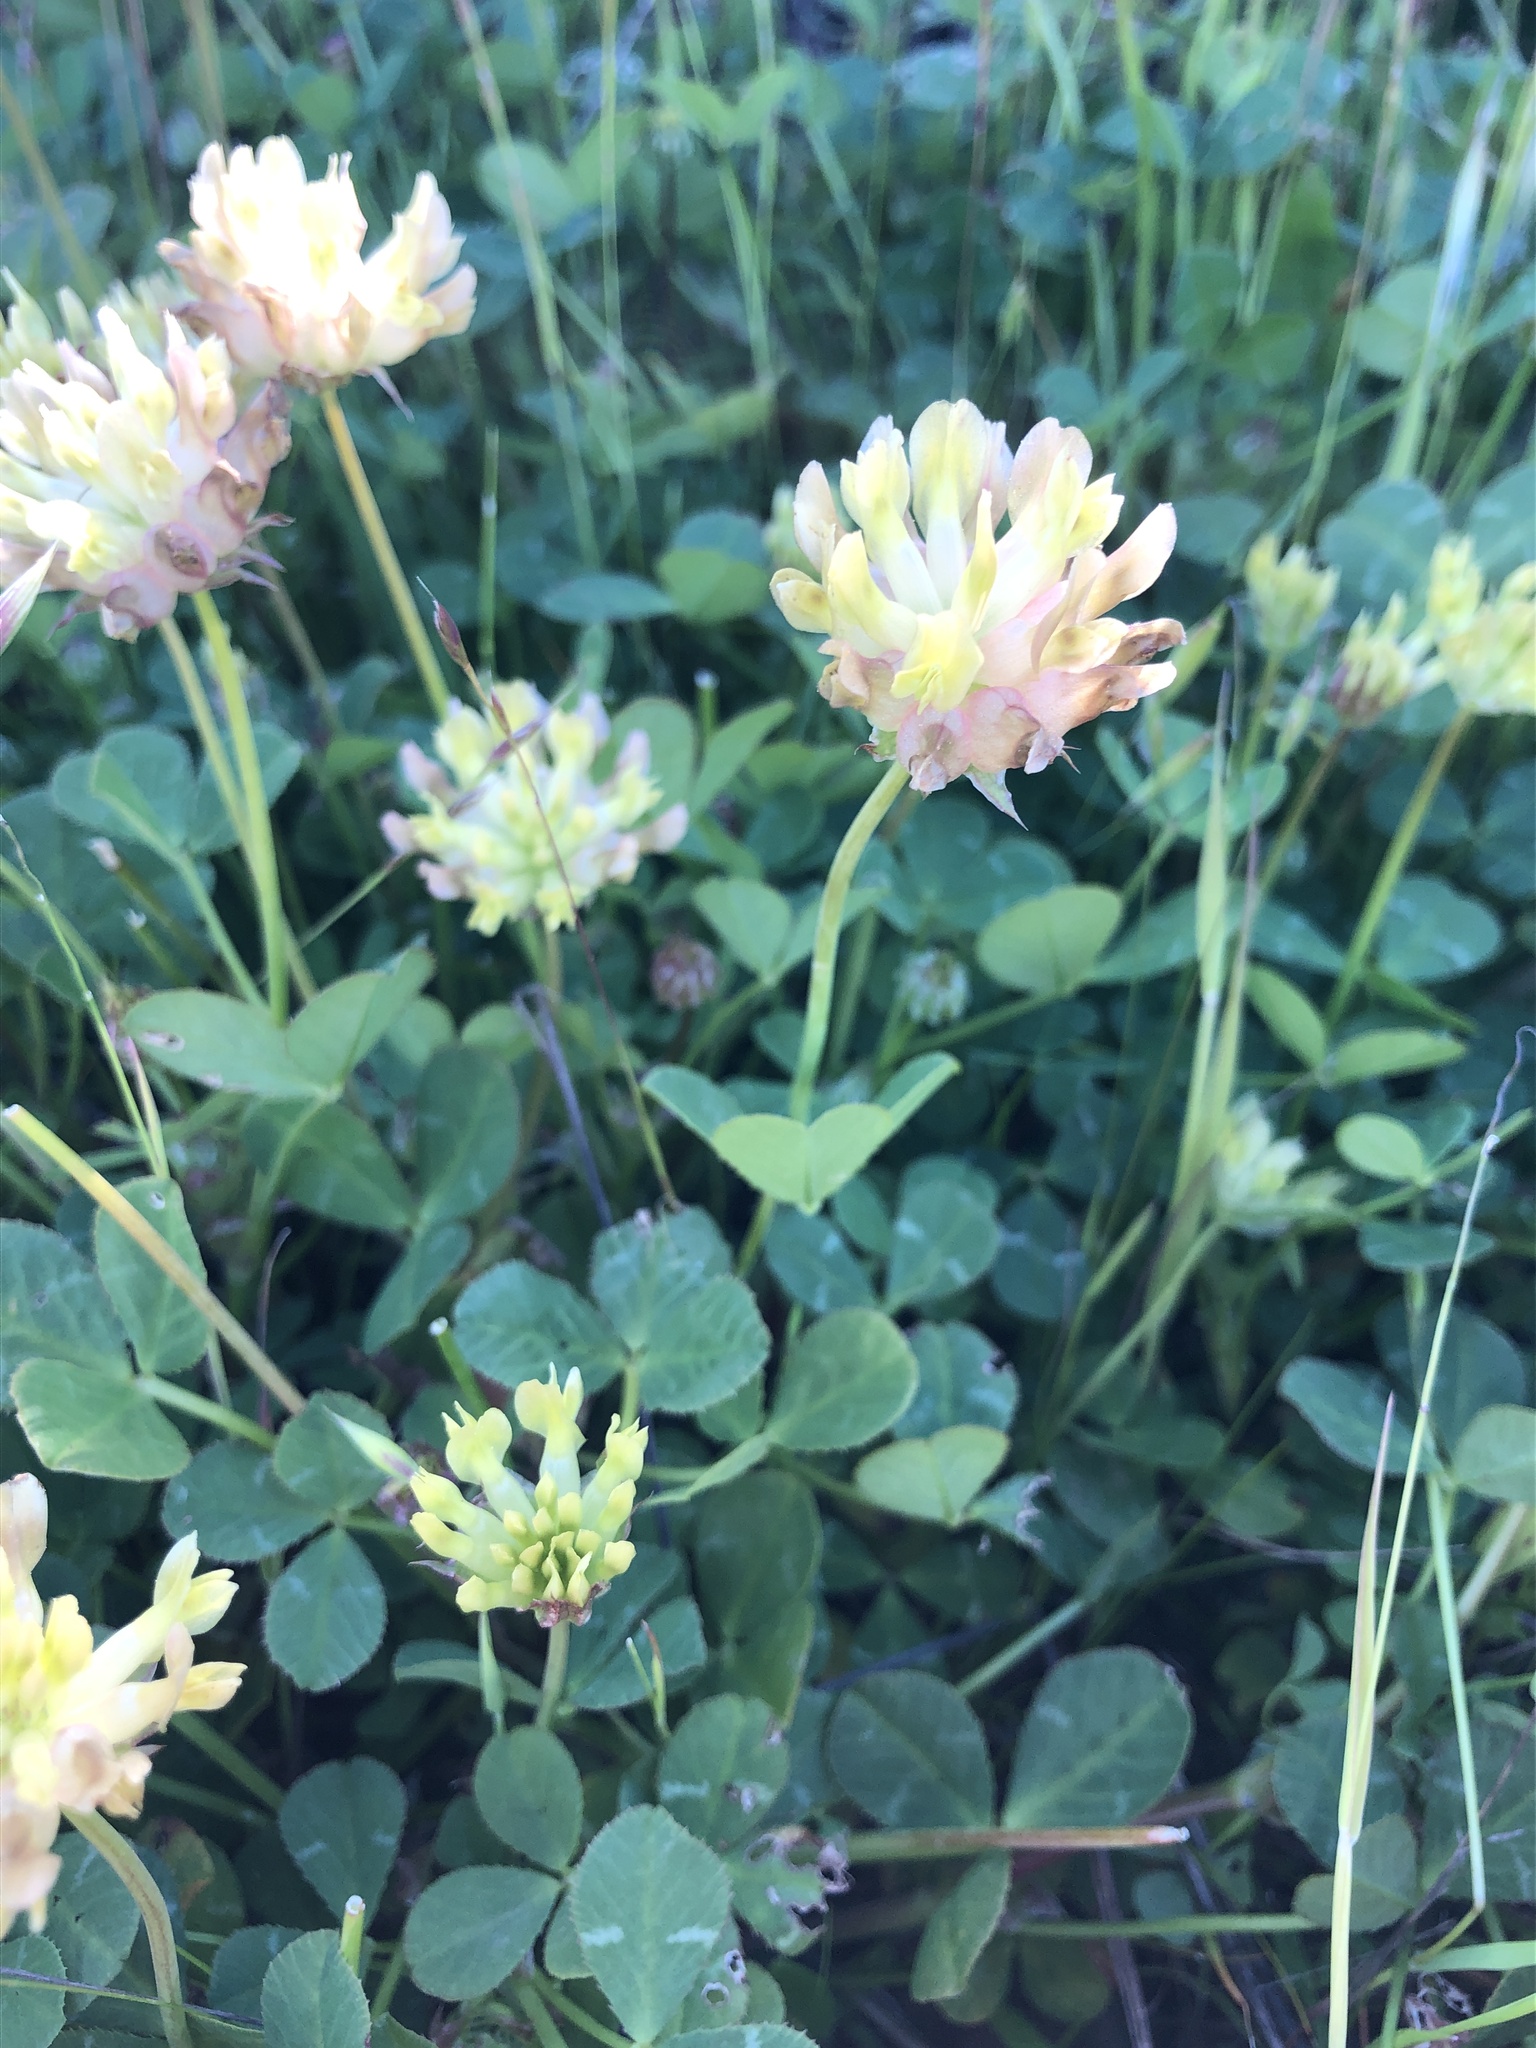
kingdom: Plantae
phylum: Tracheophyta
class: Magnoliopsida
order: Fabales
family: Fabaceae
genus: Trifolium
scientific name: Trifolium fucatum
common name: Puff clover
